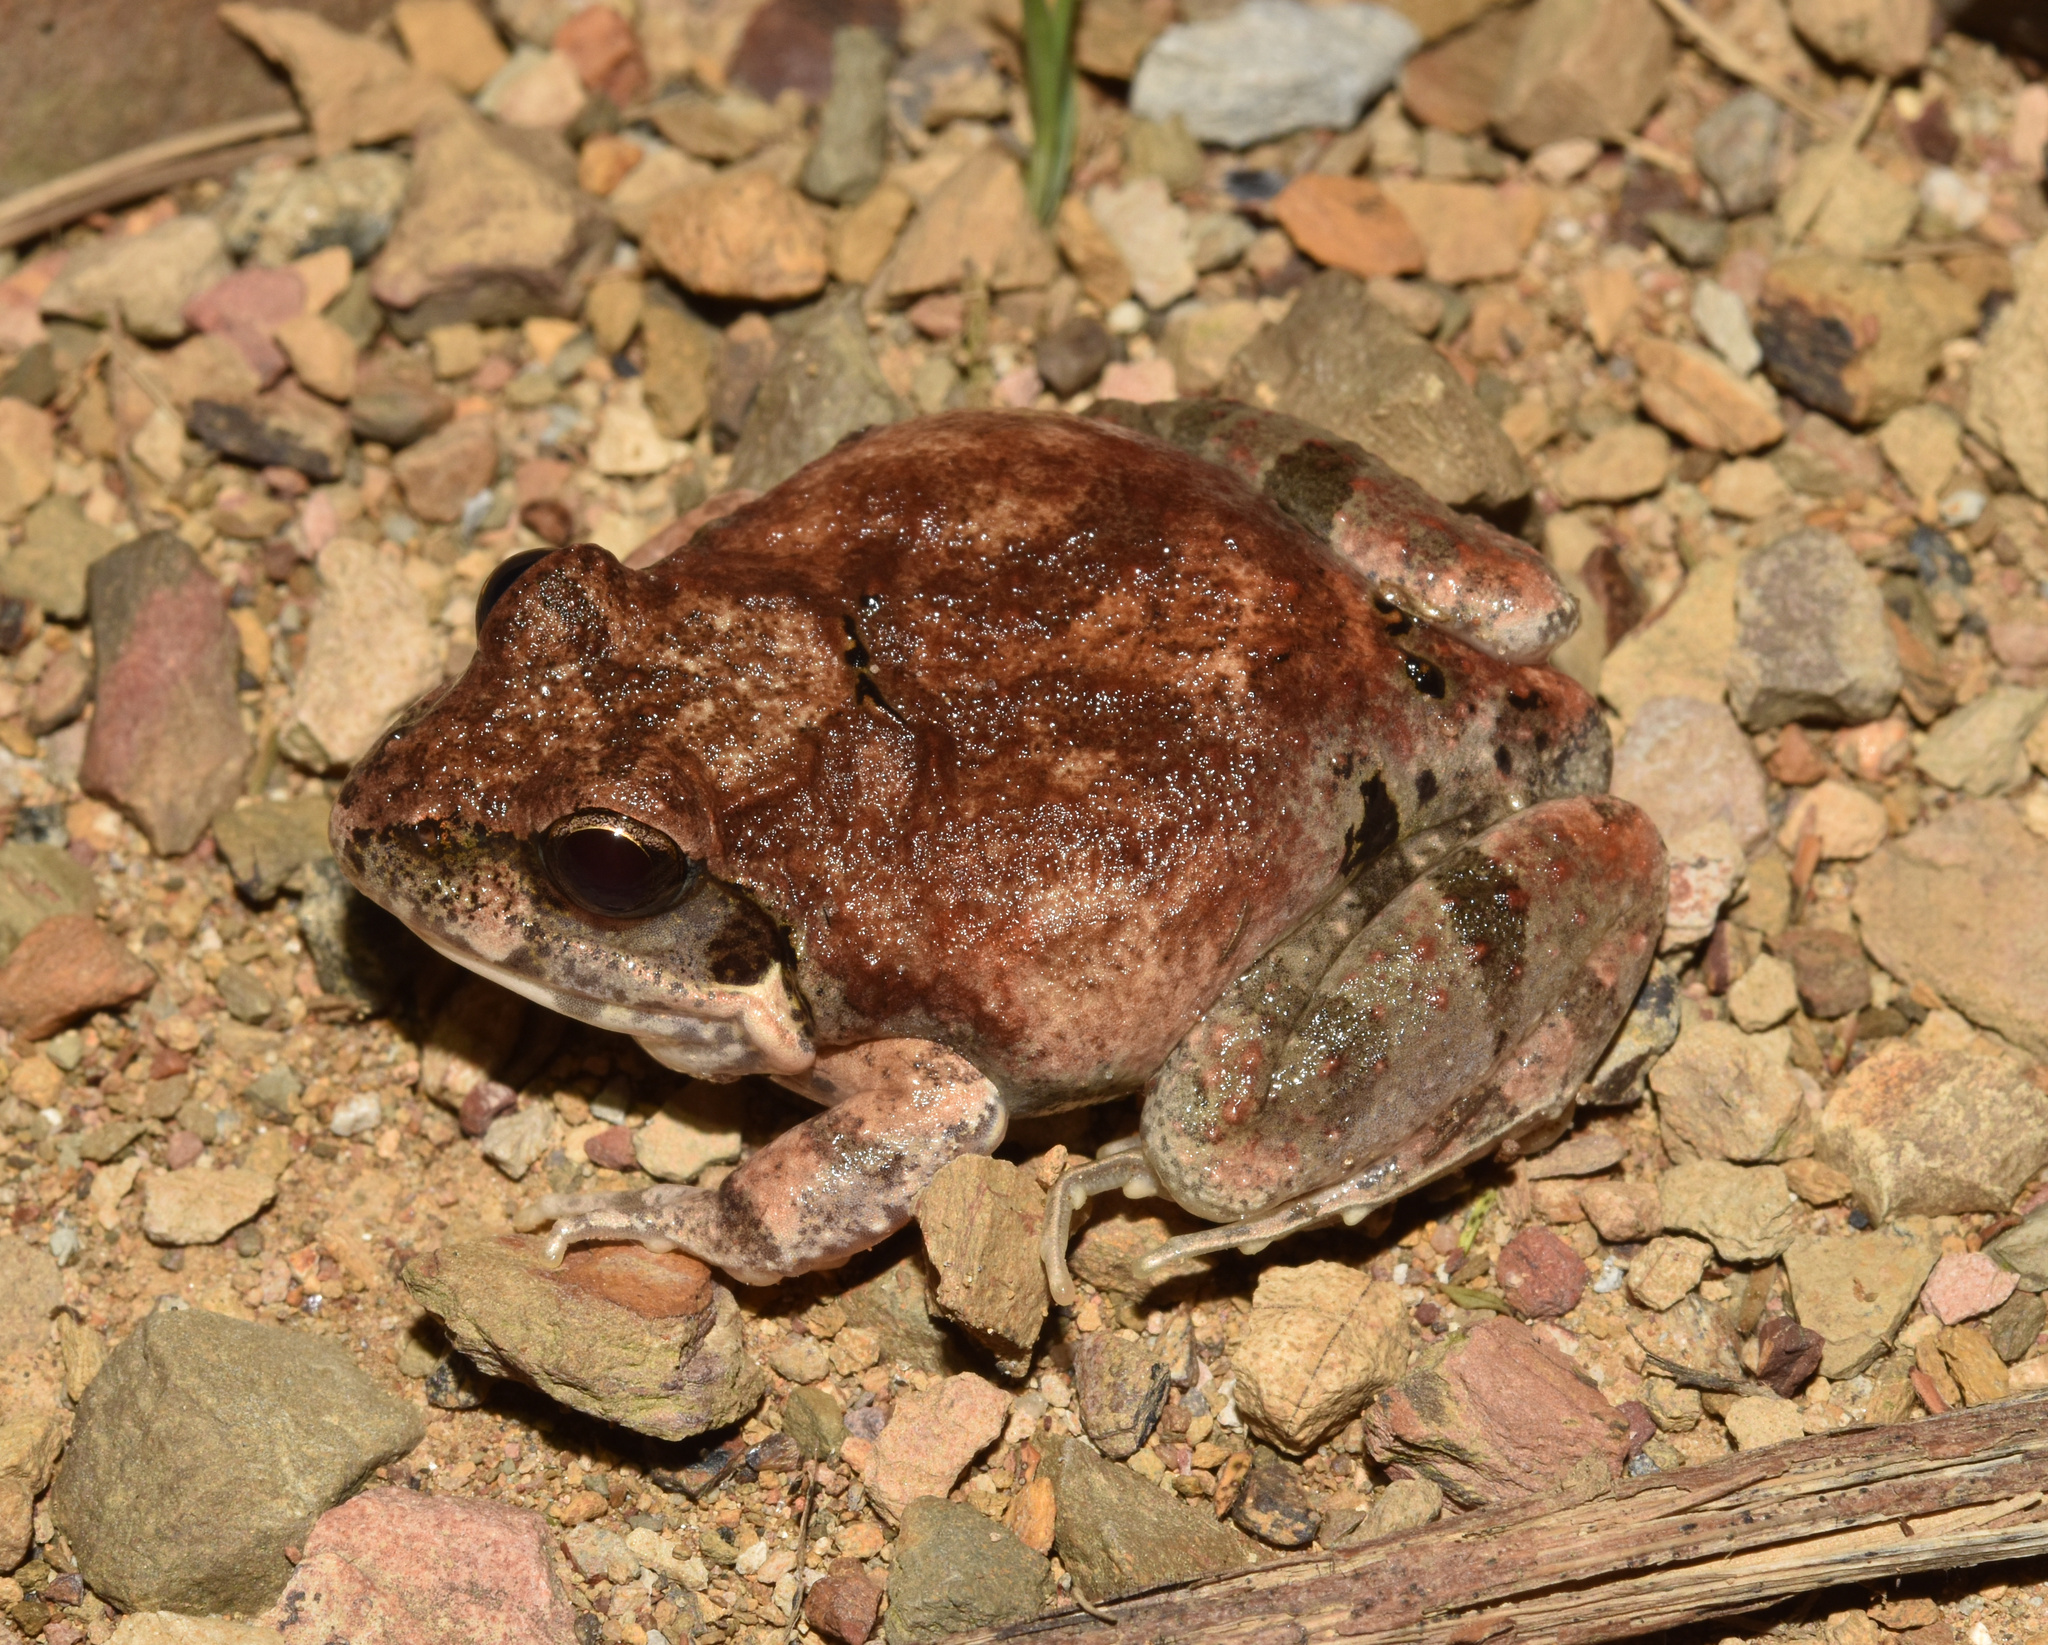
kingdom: Animalia
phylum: Chordata
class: Amphibia
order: Anura
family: Pyxicephalidae
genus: Tomopterna
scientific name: Tomopterna natalensis
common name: Natal sand frog
